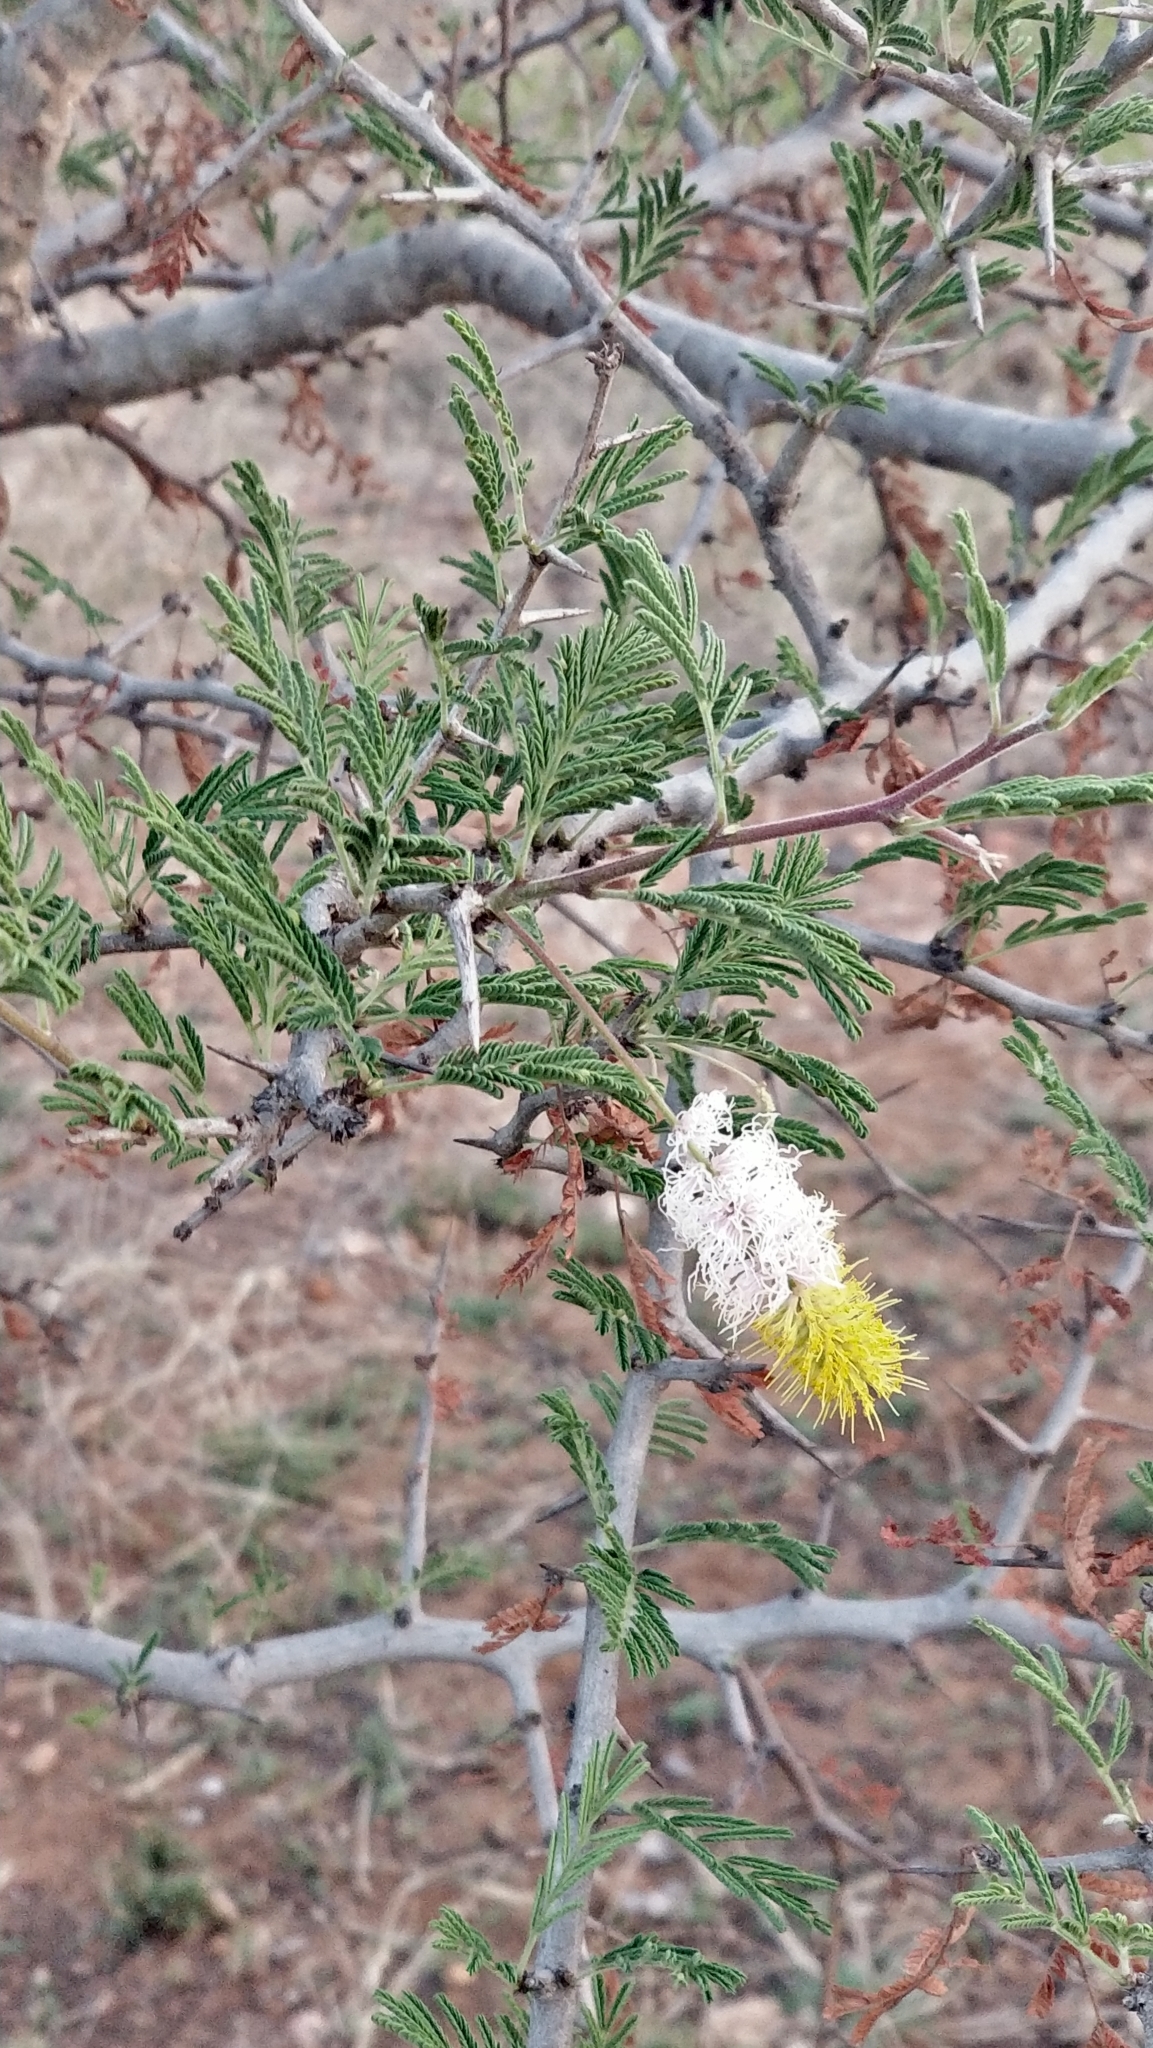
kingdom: Plantae
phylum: Tracheophyta
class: Magnoliopsida
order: Fabales
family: Fabaceae
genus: Dichrostachys
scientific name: Dichrostachys cinerea
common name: Sicklebush
